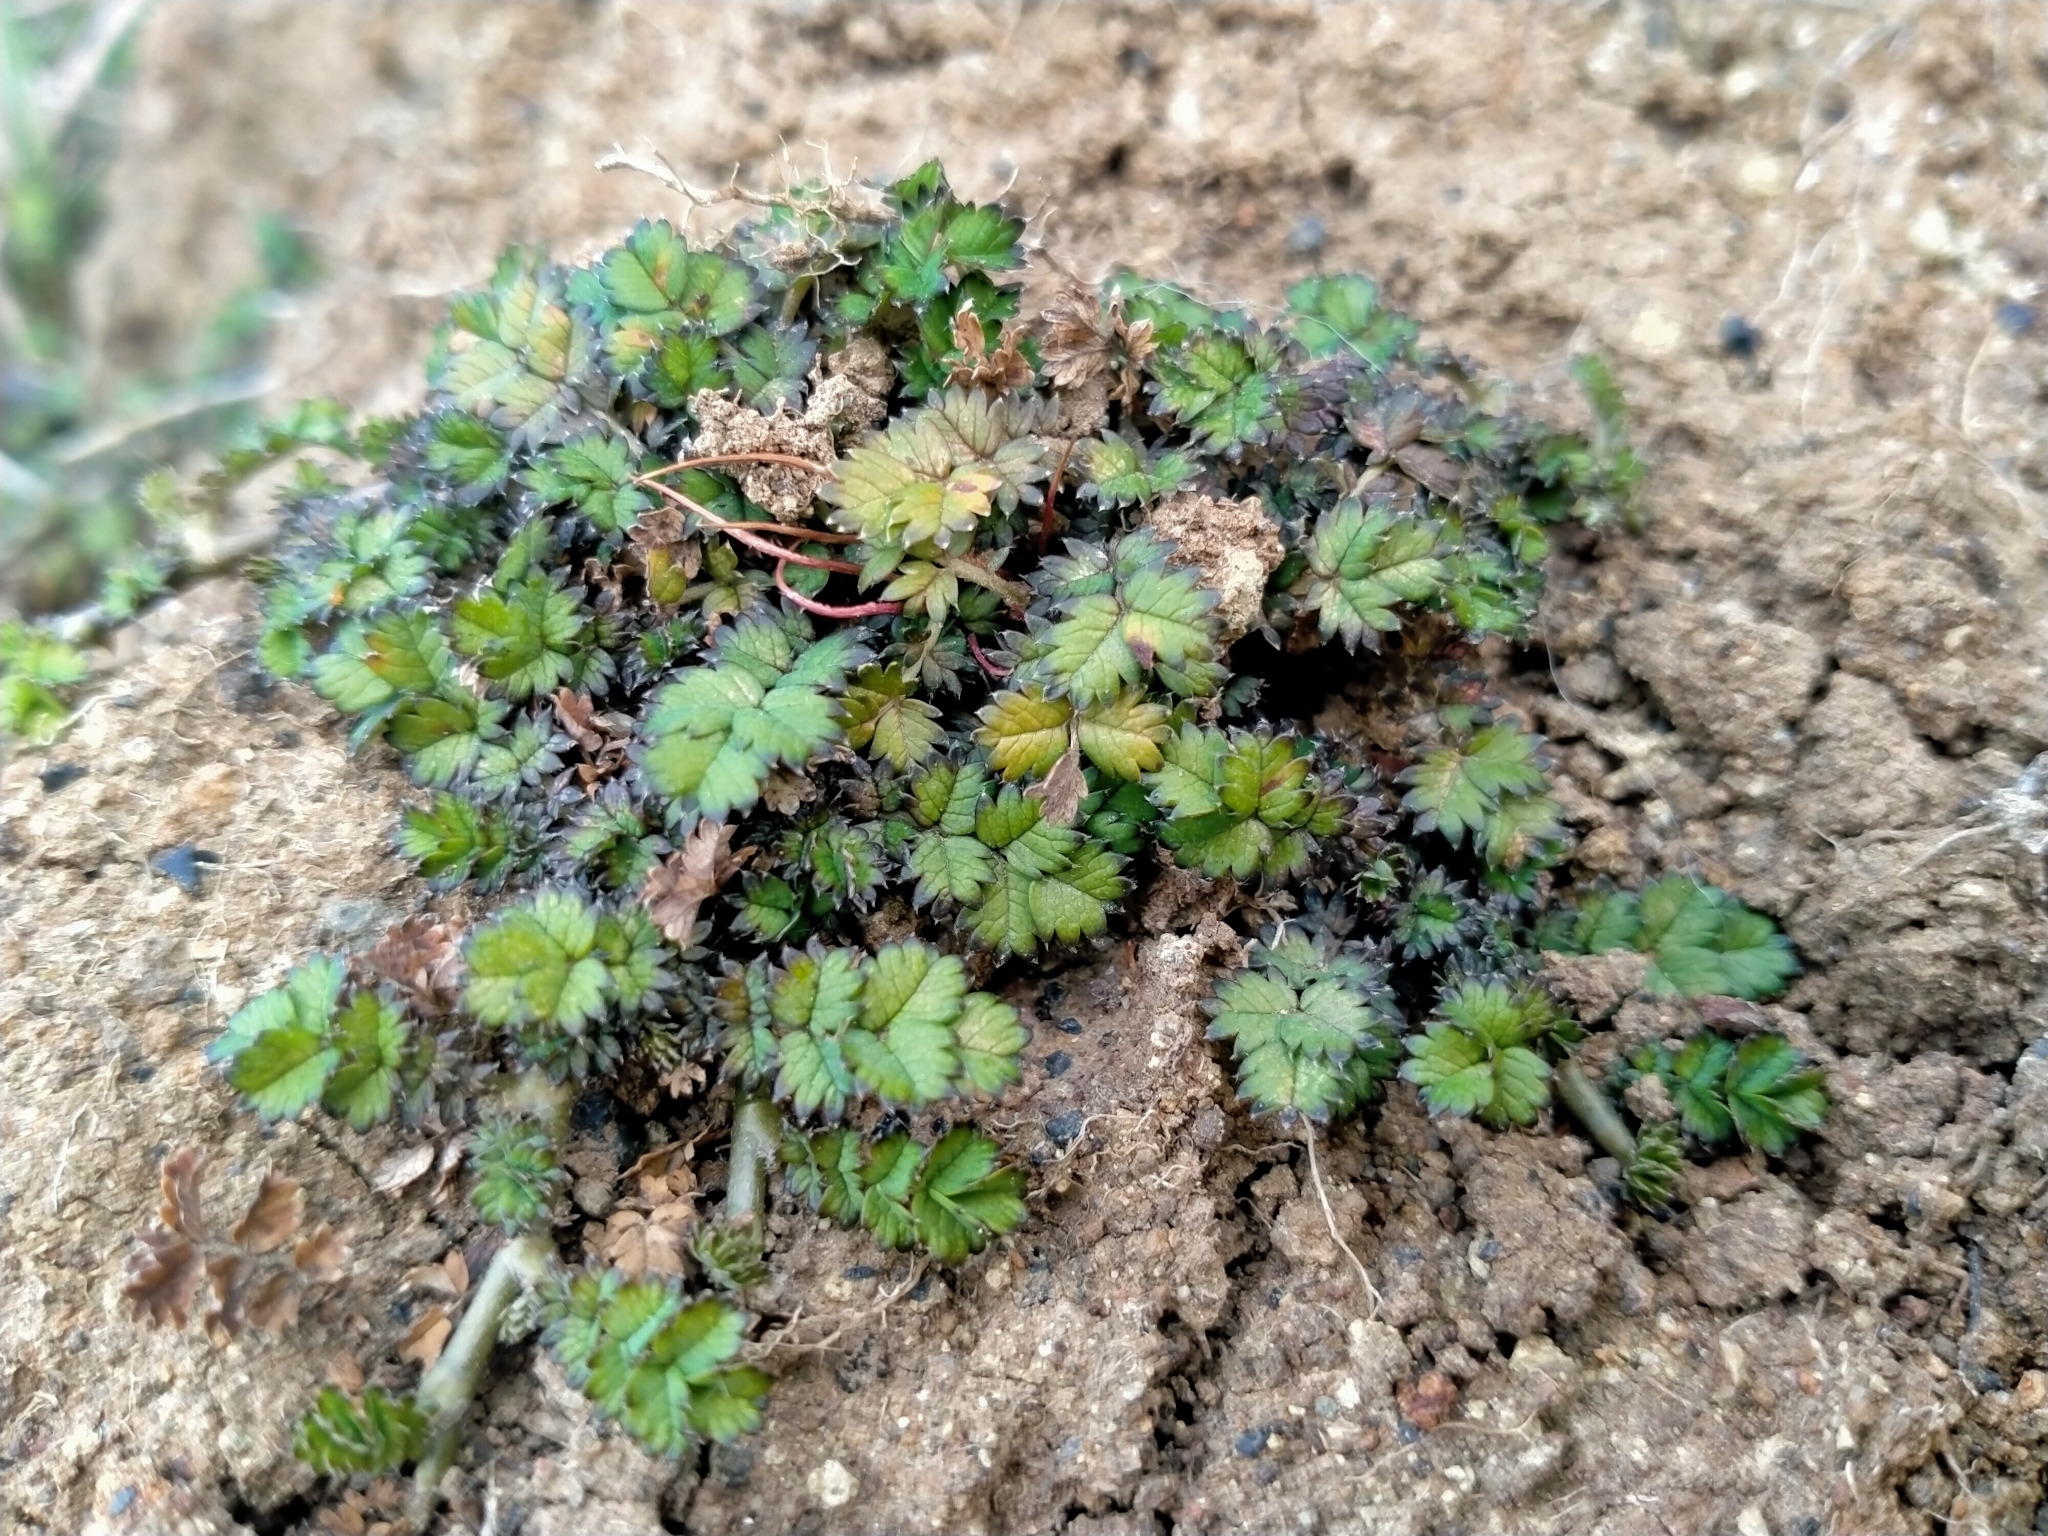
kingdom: Plantae
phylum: Tracheophyta
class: Magnoliopsida
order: Rosales
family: Rosaceae
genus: Acaena
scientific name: Acaena microphylla
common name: New zealand-bur
